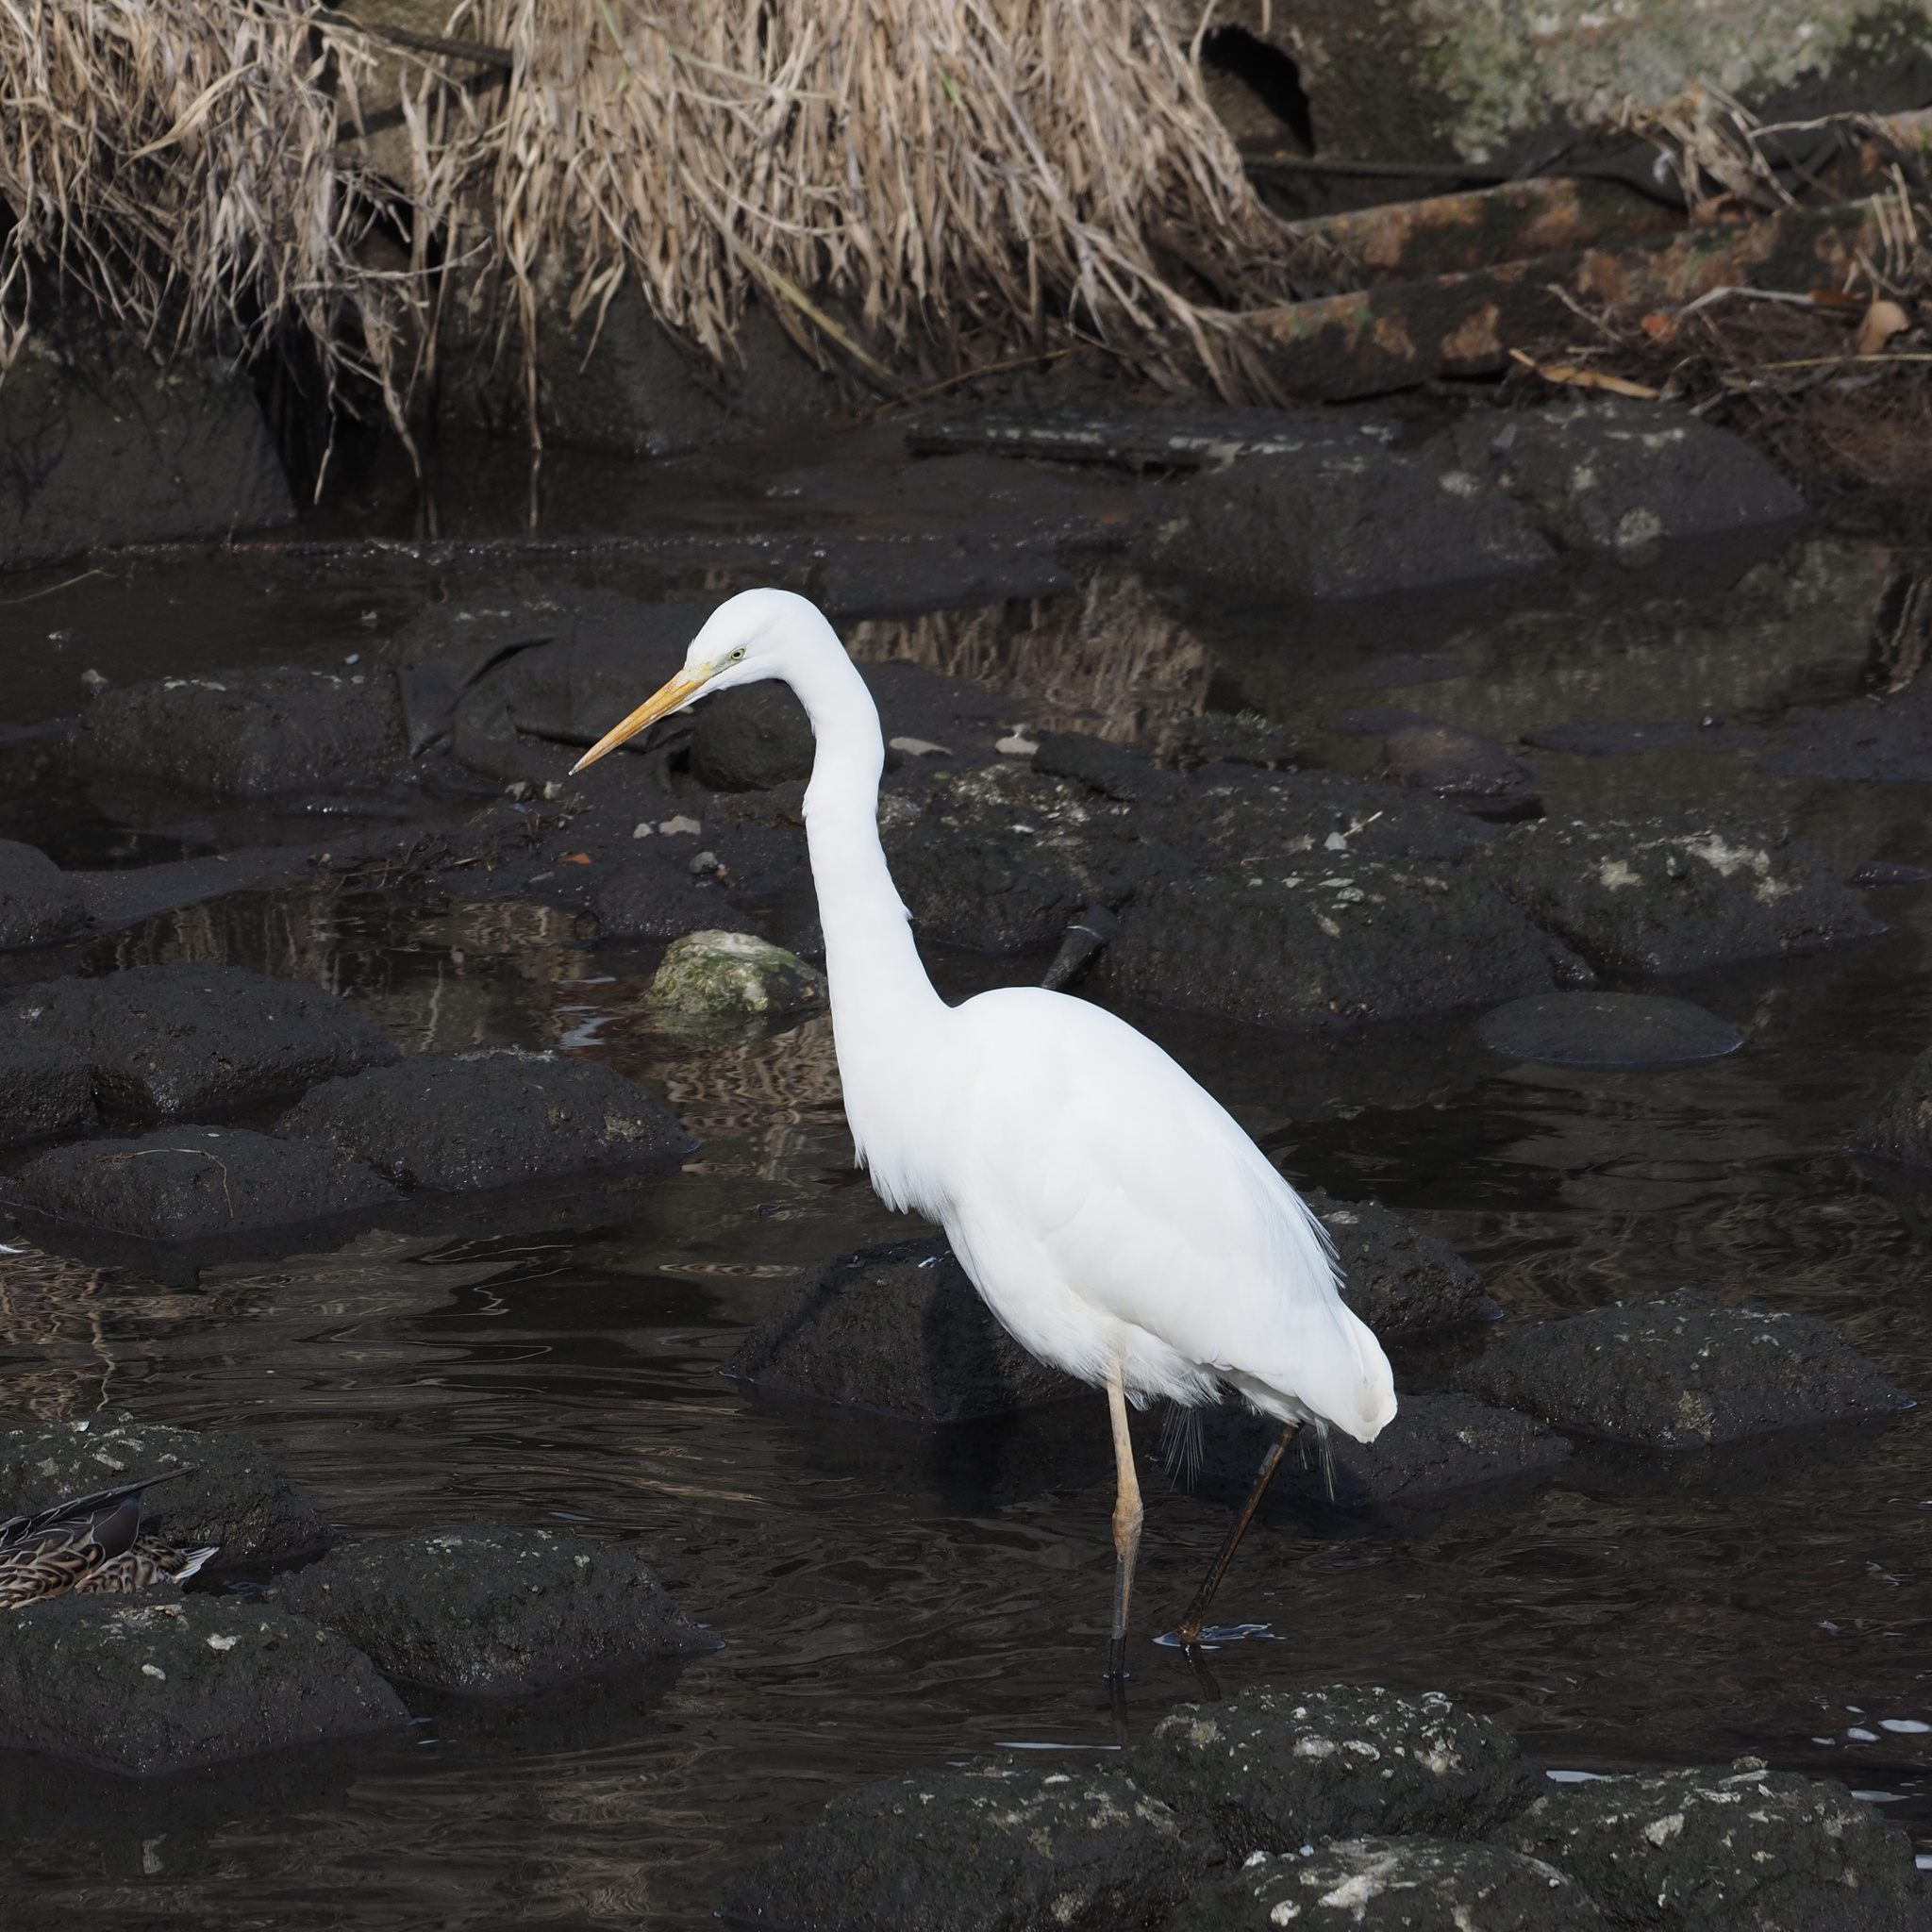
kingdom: Animalia
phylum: Chordata
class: Aves
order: Pelecaniformes
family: Ardeidae
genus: Ardea
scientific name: Ardea alba
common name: Great egret
